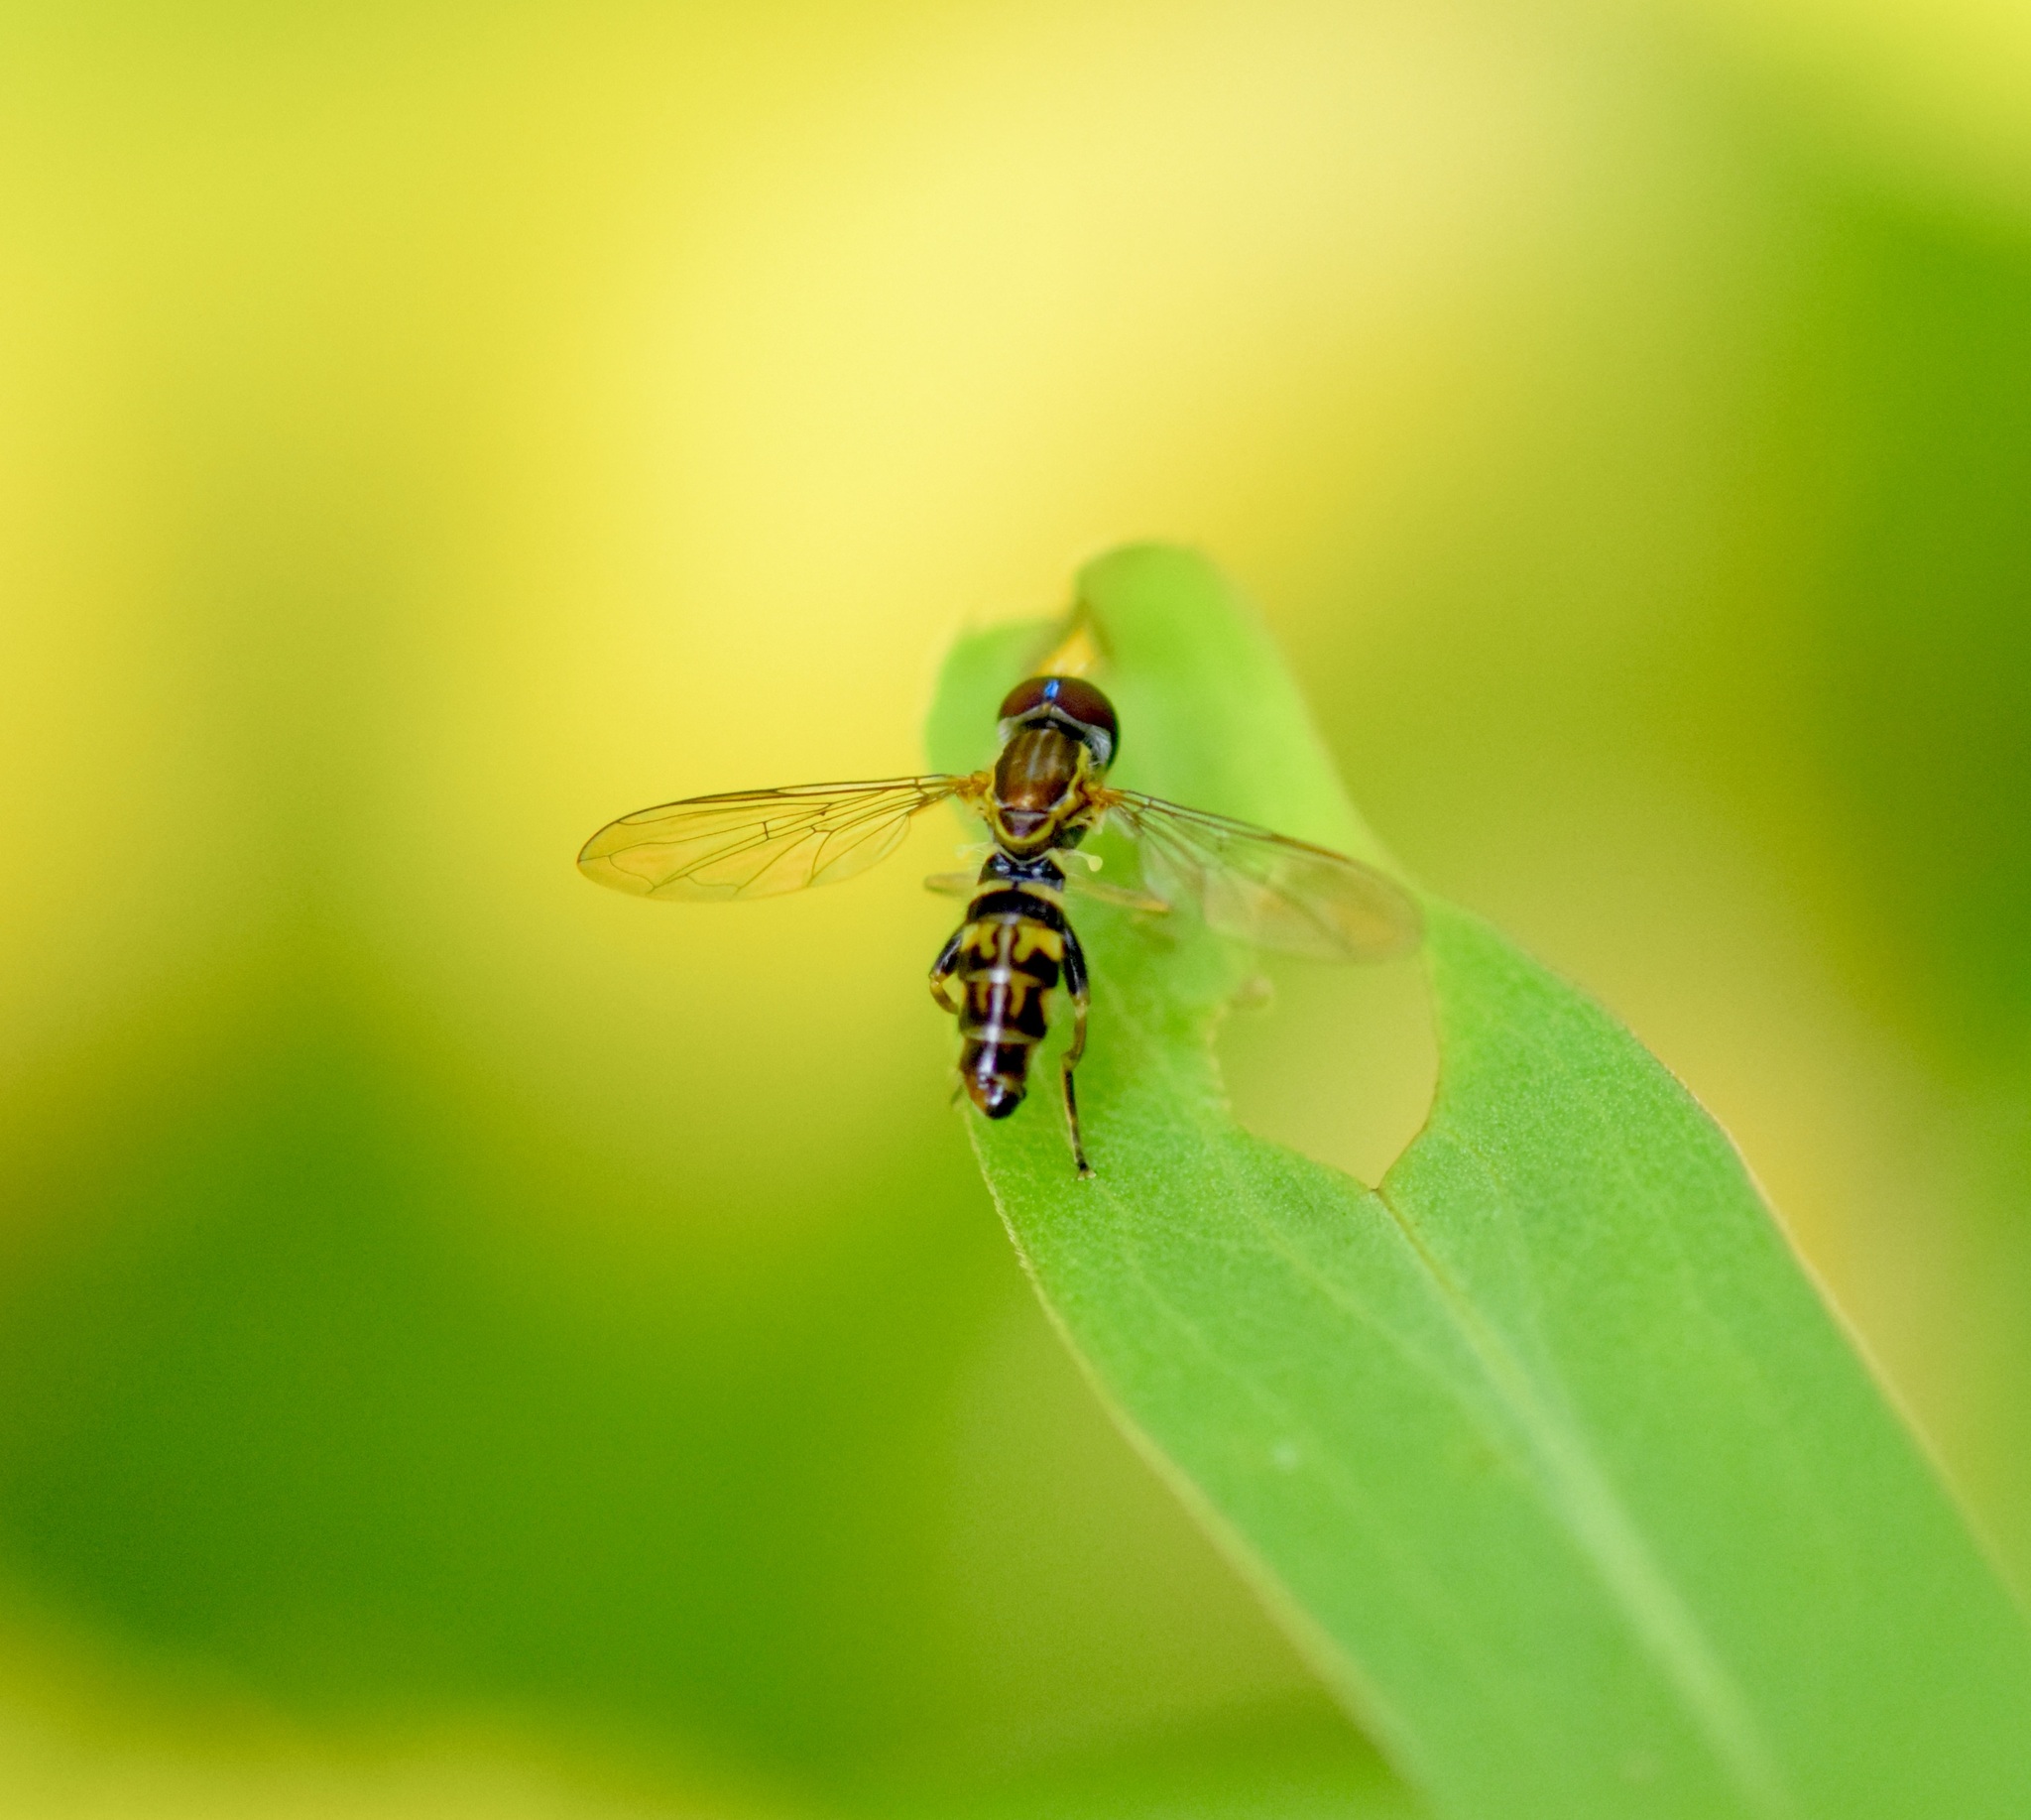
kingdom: Animalia
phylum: Arthropoda
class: Insecta
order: Diptera
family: Syrphidae
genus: Toxomerus
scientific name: Toxomerus geminatus
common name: Eastern calligrapher
